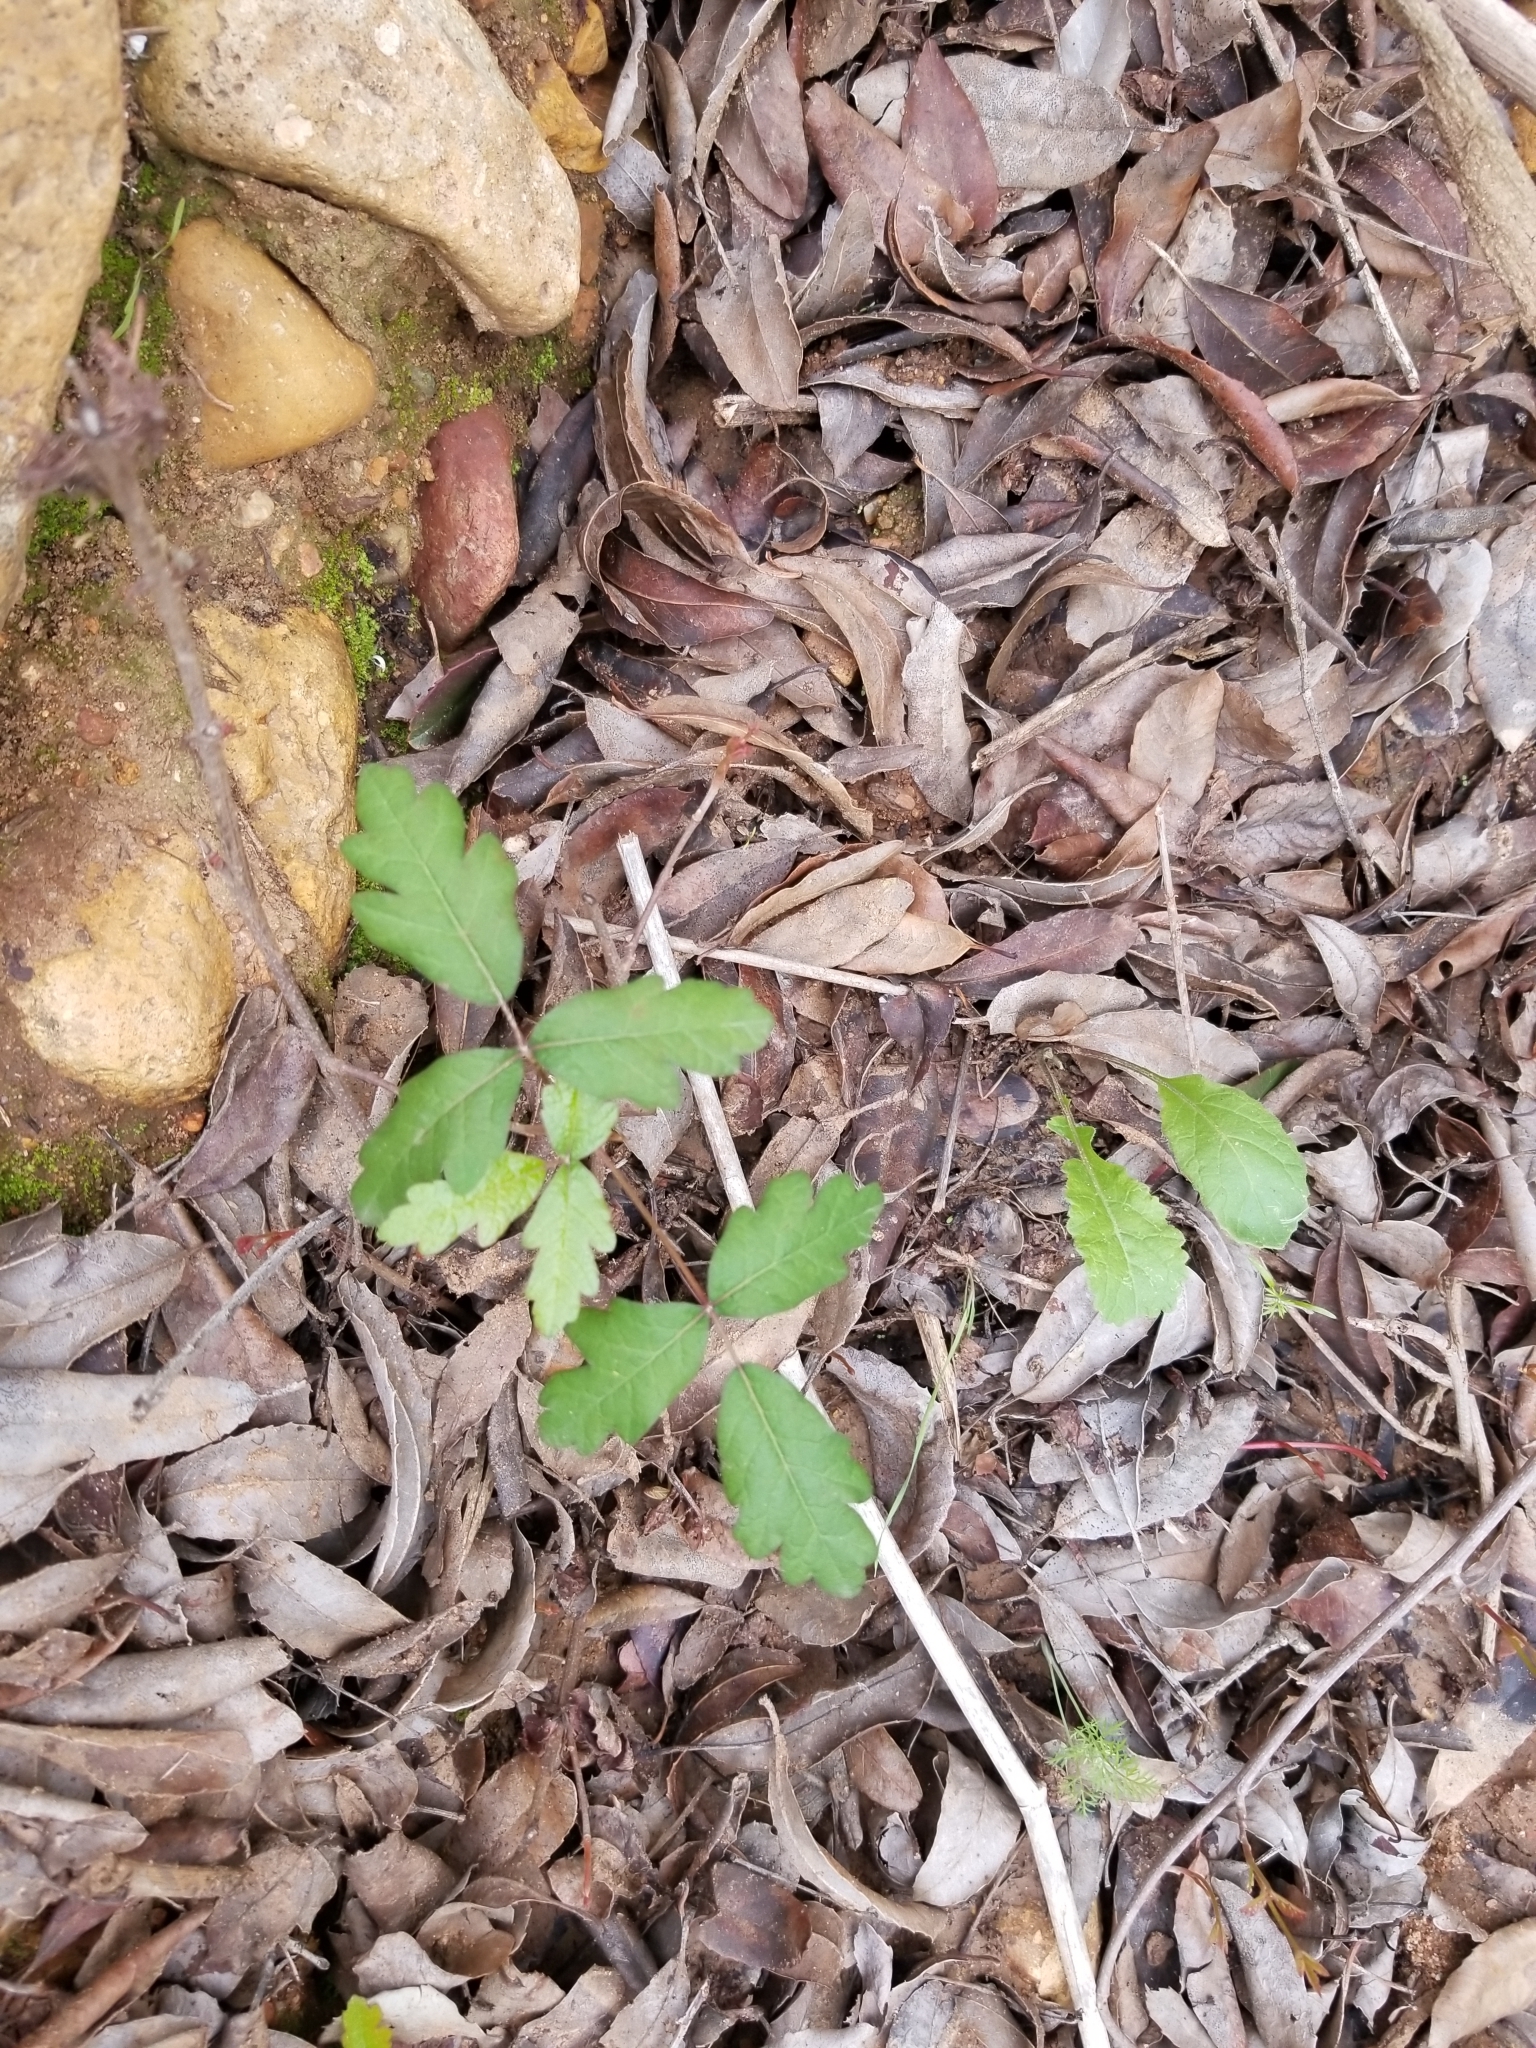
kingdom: Plantae
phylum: Tracheophyta
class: Magnoliopsida
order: Sapindales
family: Anacardiaceae
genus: Toxicodendron
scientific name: Toxicodendron diversilobum
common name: Pacific poison-oak
